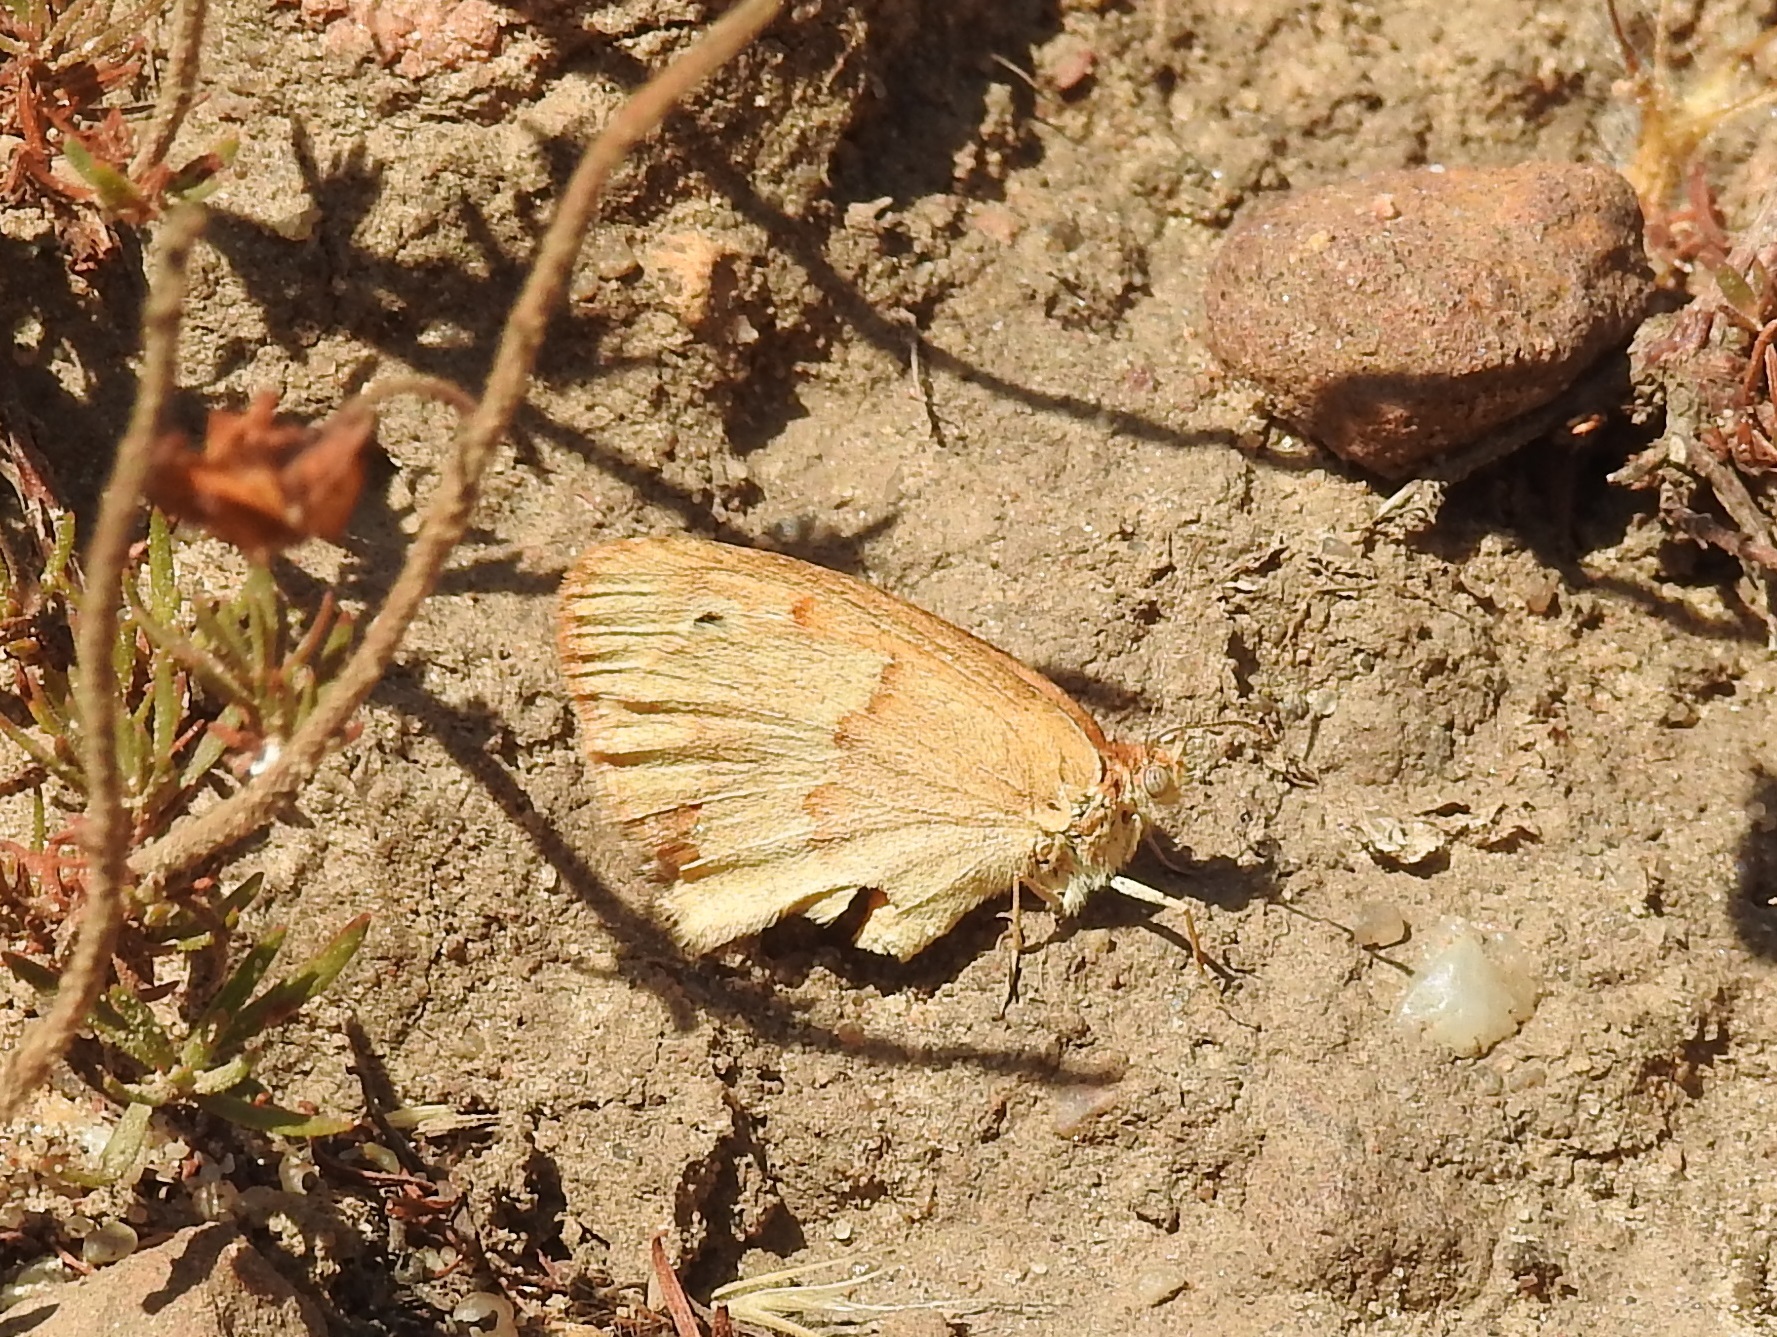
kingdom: Animalia
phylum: Arthropoda
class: Insecta
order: Lepidoptera
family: Nymphalidae
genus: Coenonympha
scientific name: Coenonympha pamphilus
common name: Small heath
